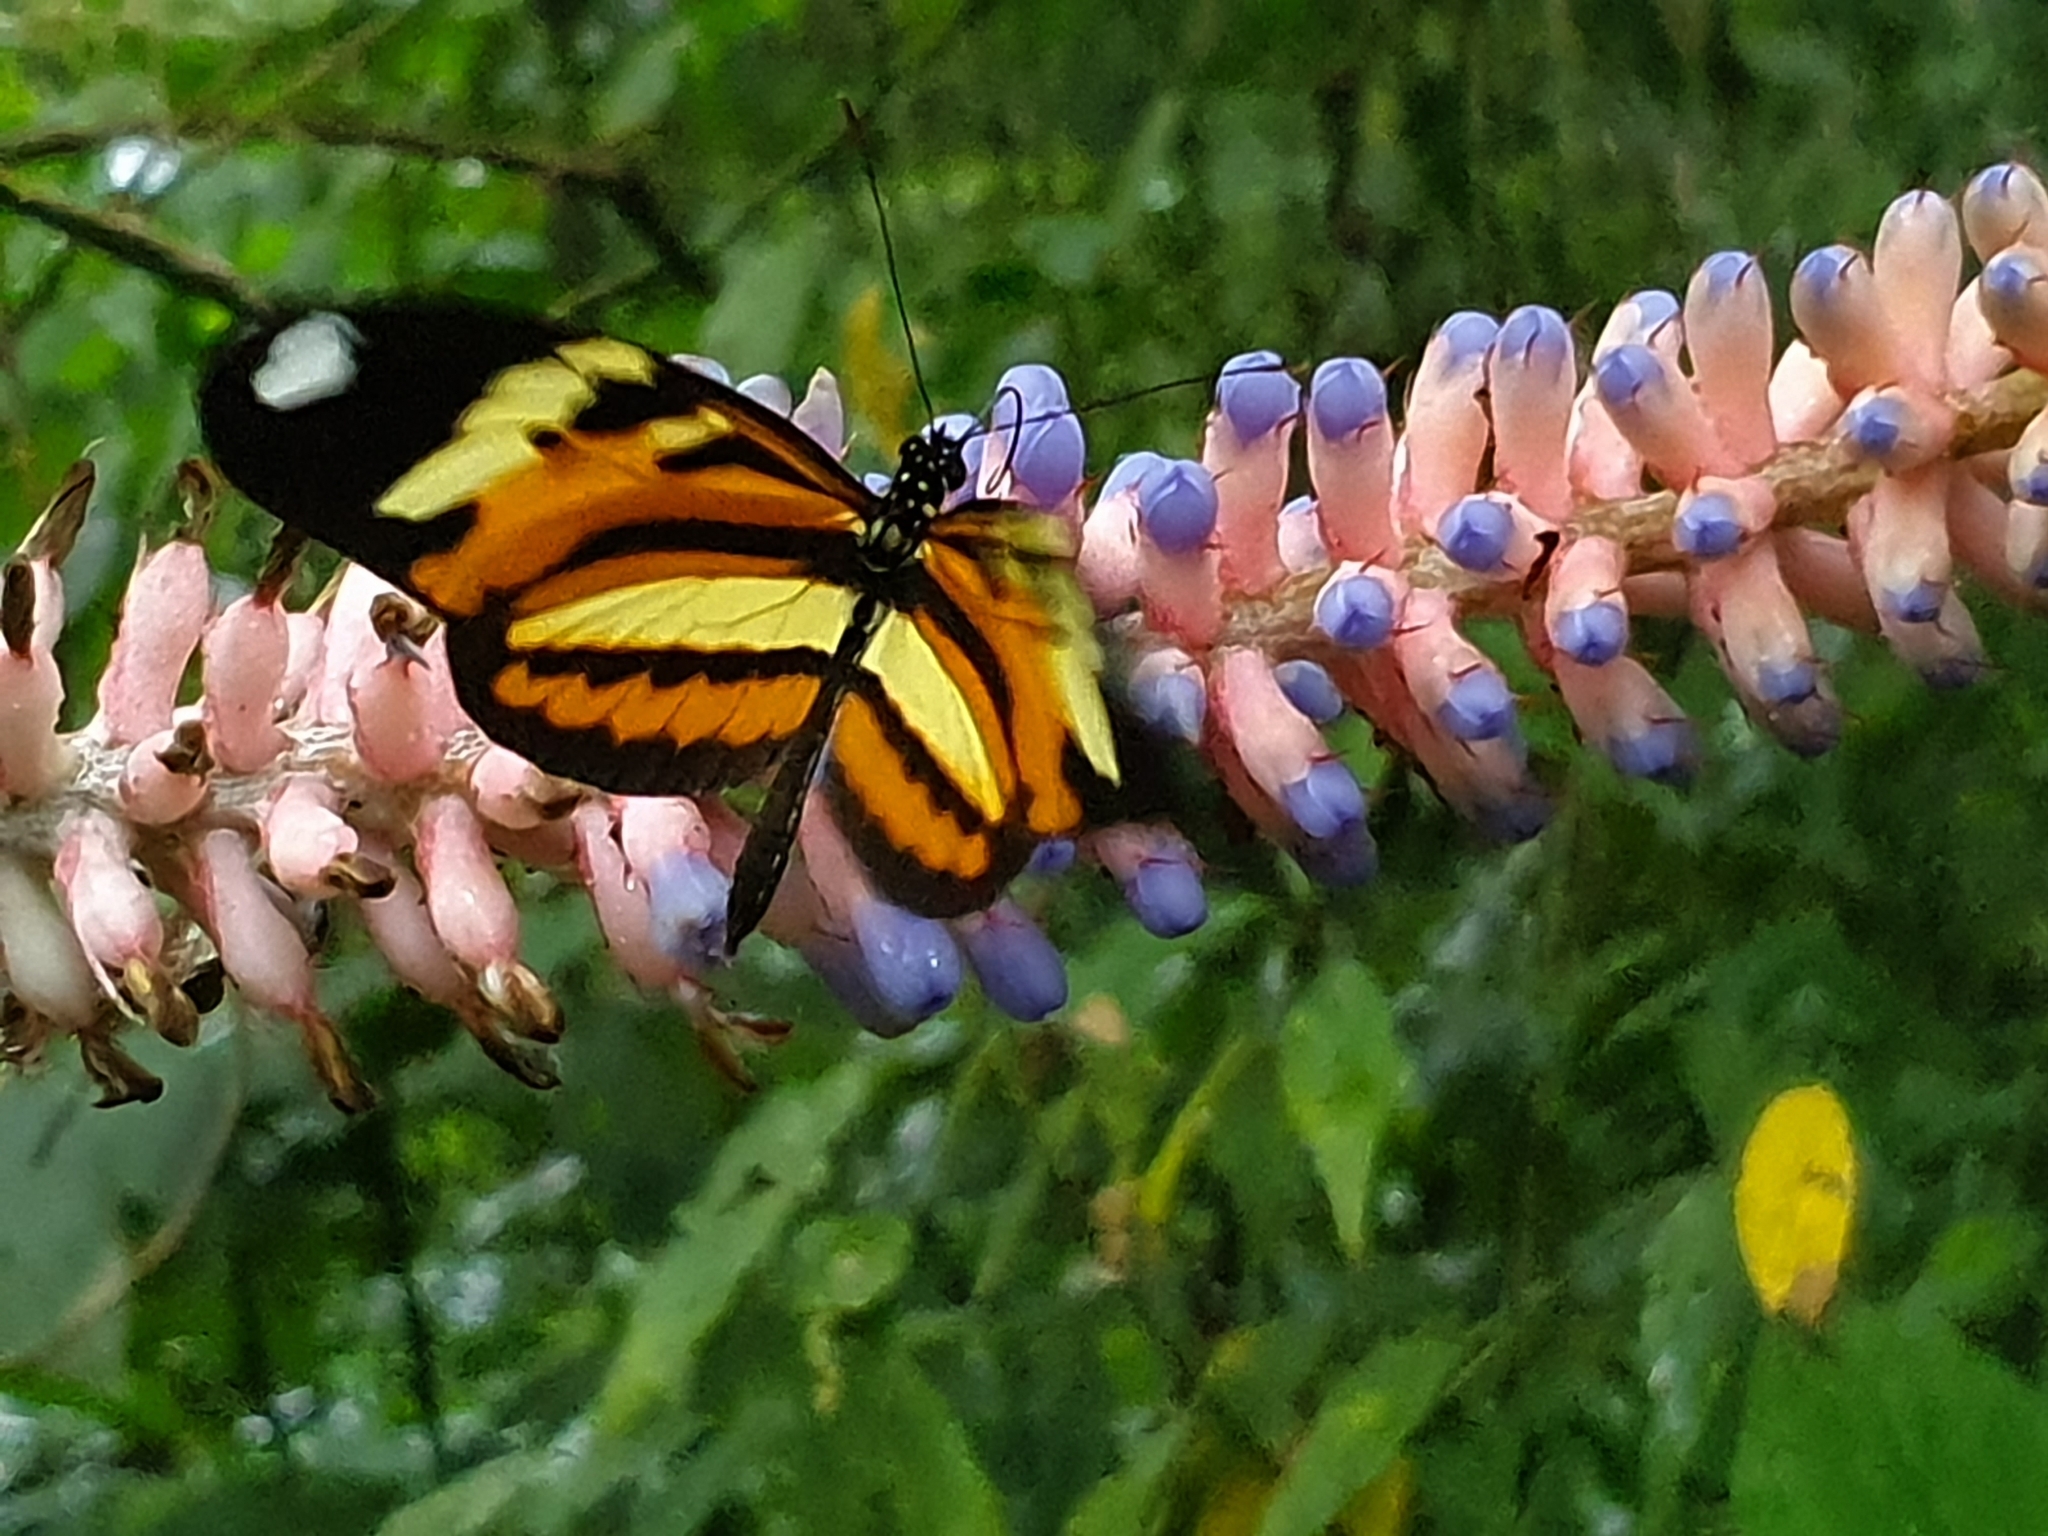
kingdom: Animalia
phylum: Arthropoda
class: Insecta
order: Lepidoptera
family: Nymphalidae
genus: Heliconius
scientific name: Heliconius ethilla
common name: Ethilia longwing
